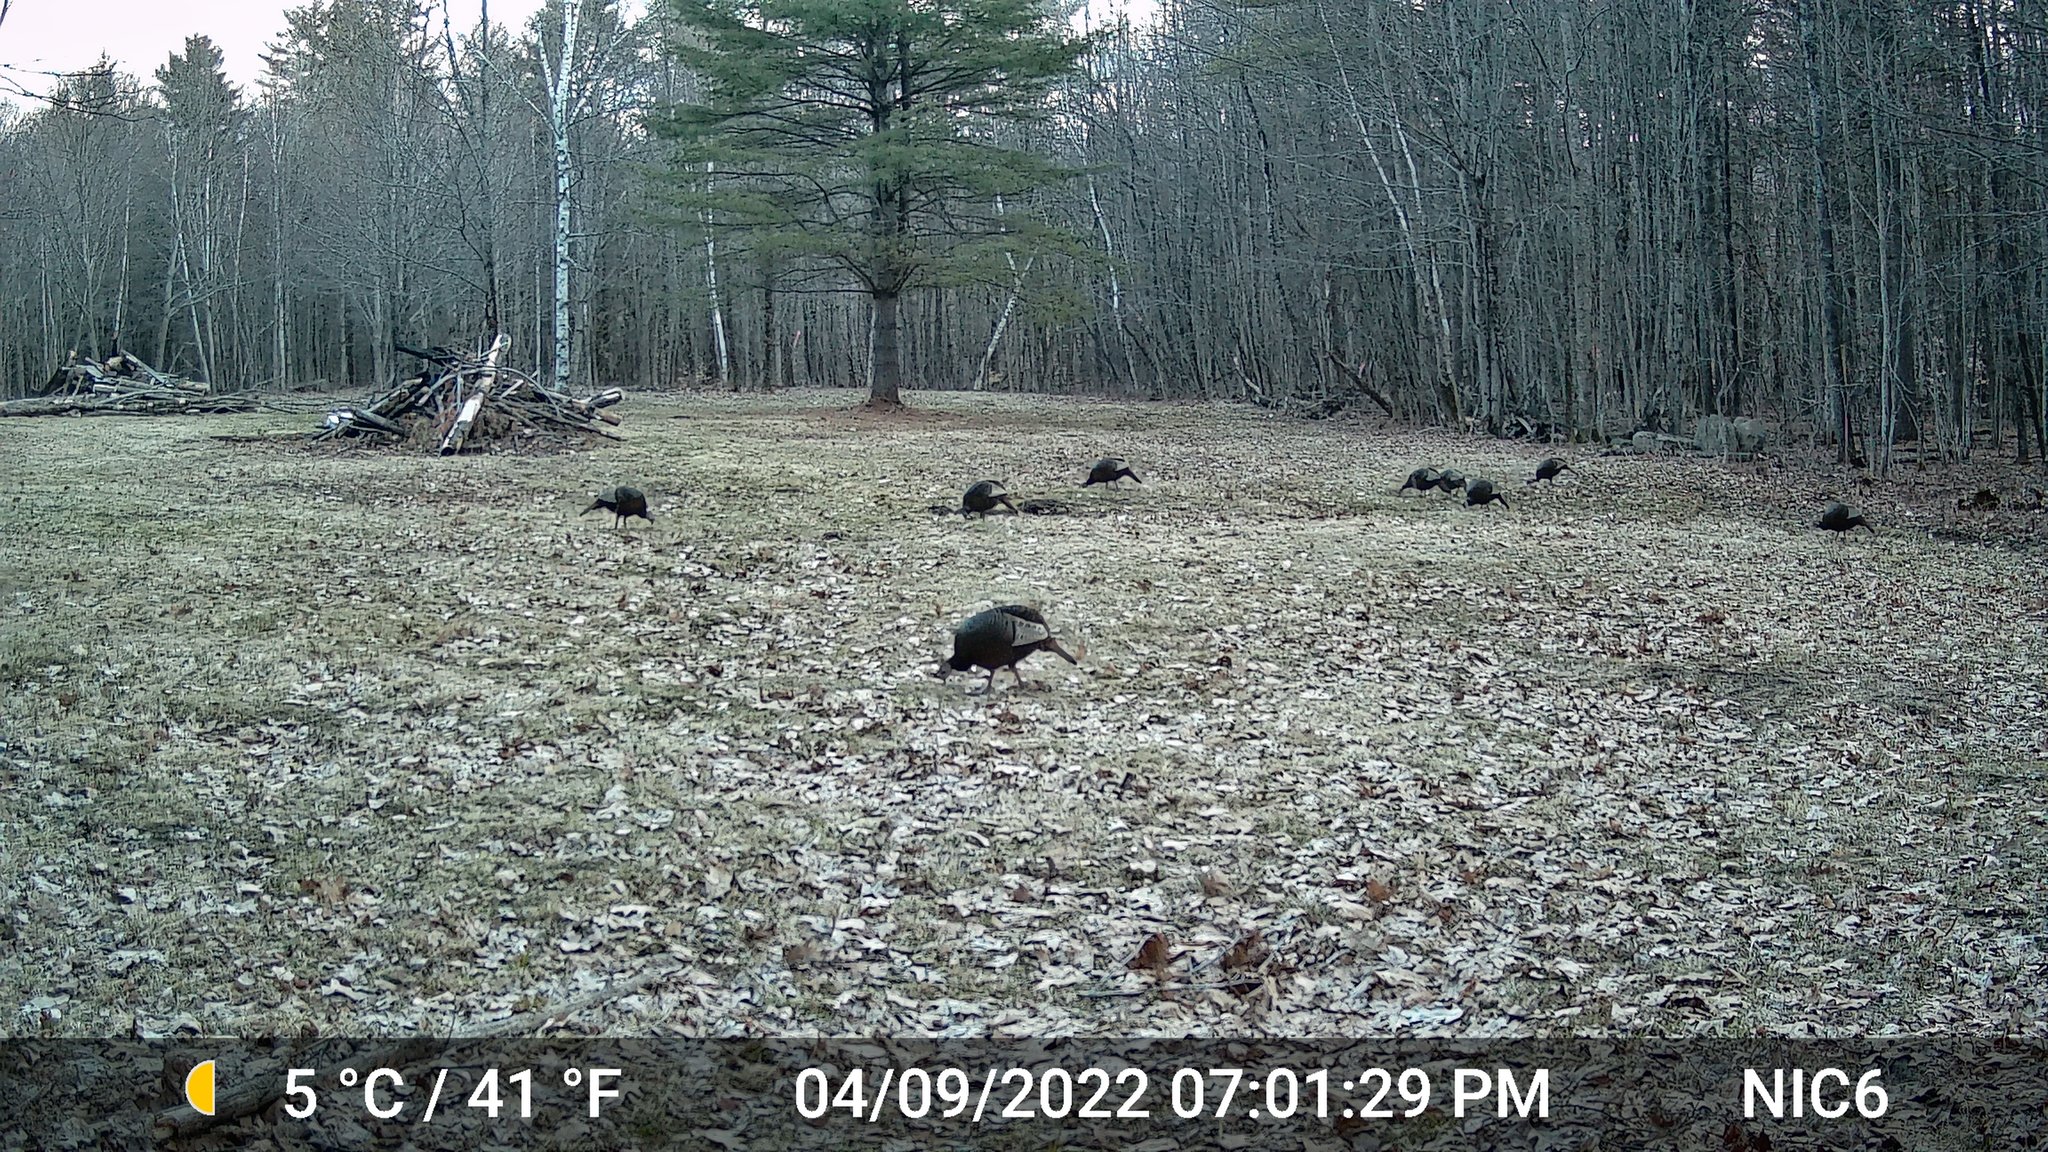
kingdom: Animalia
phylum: Chordata
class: Aves
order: Galliformes
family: Phasianidae
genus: Meleagris
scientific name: Meleagris gallopavo
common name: Wild turkey
